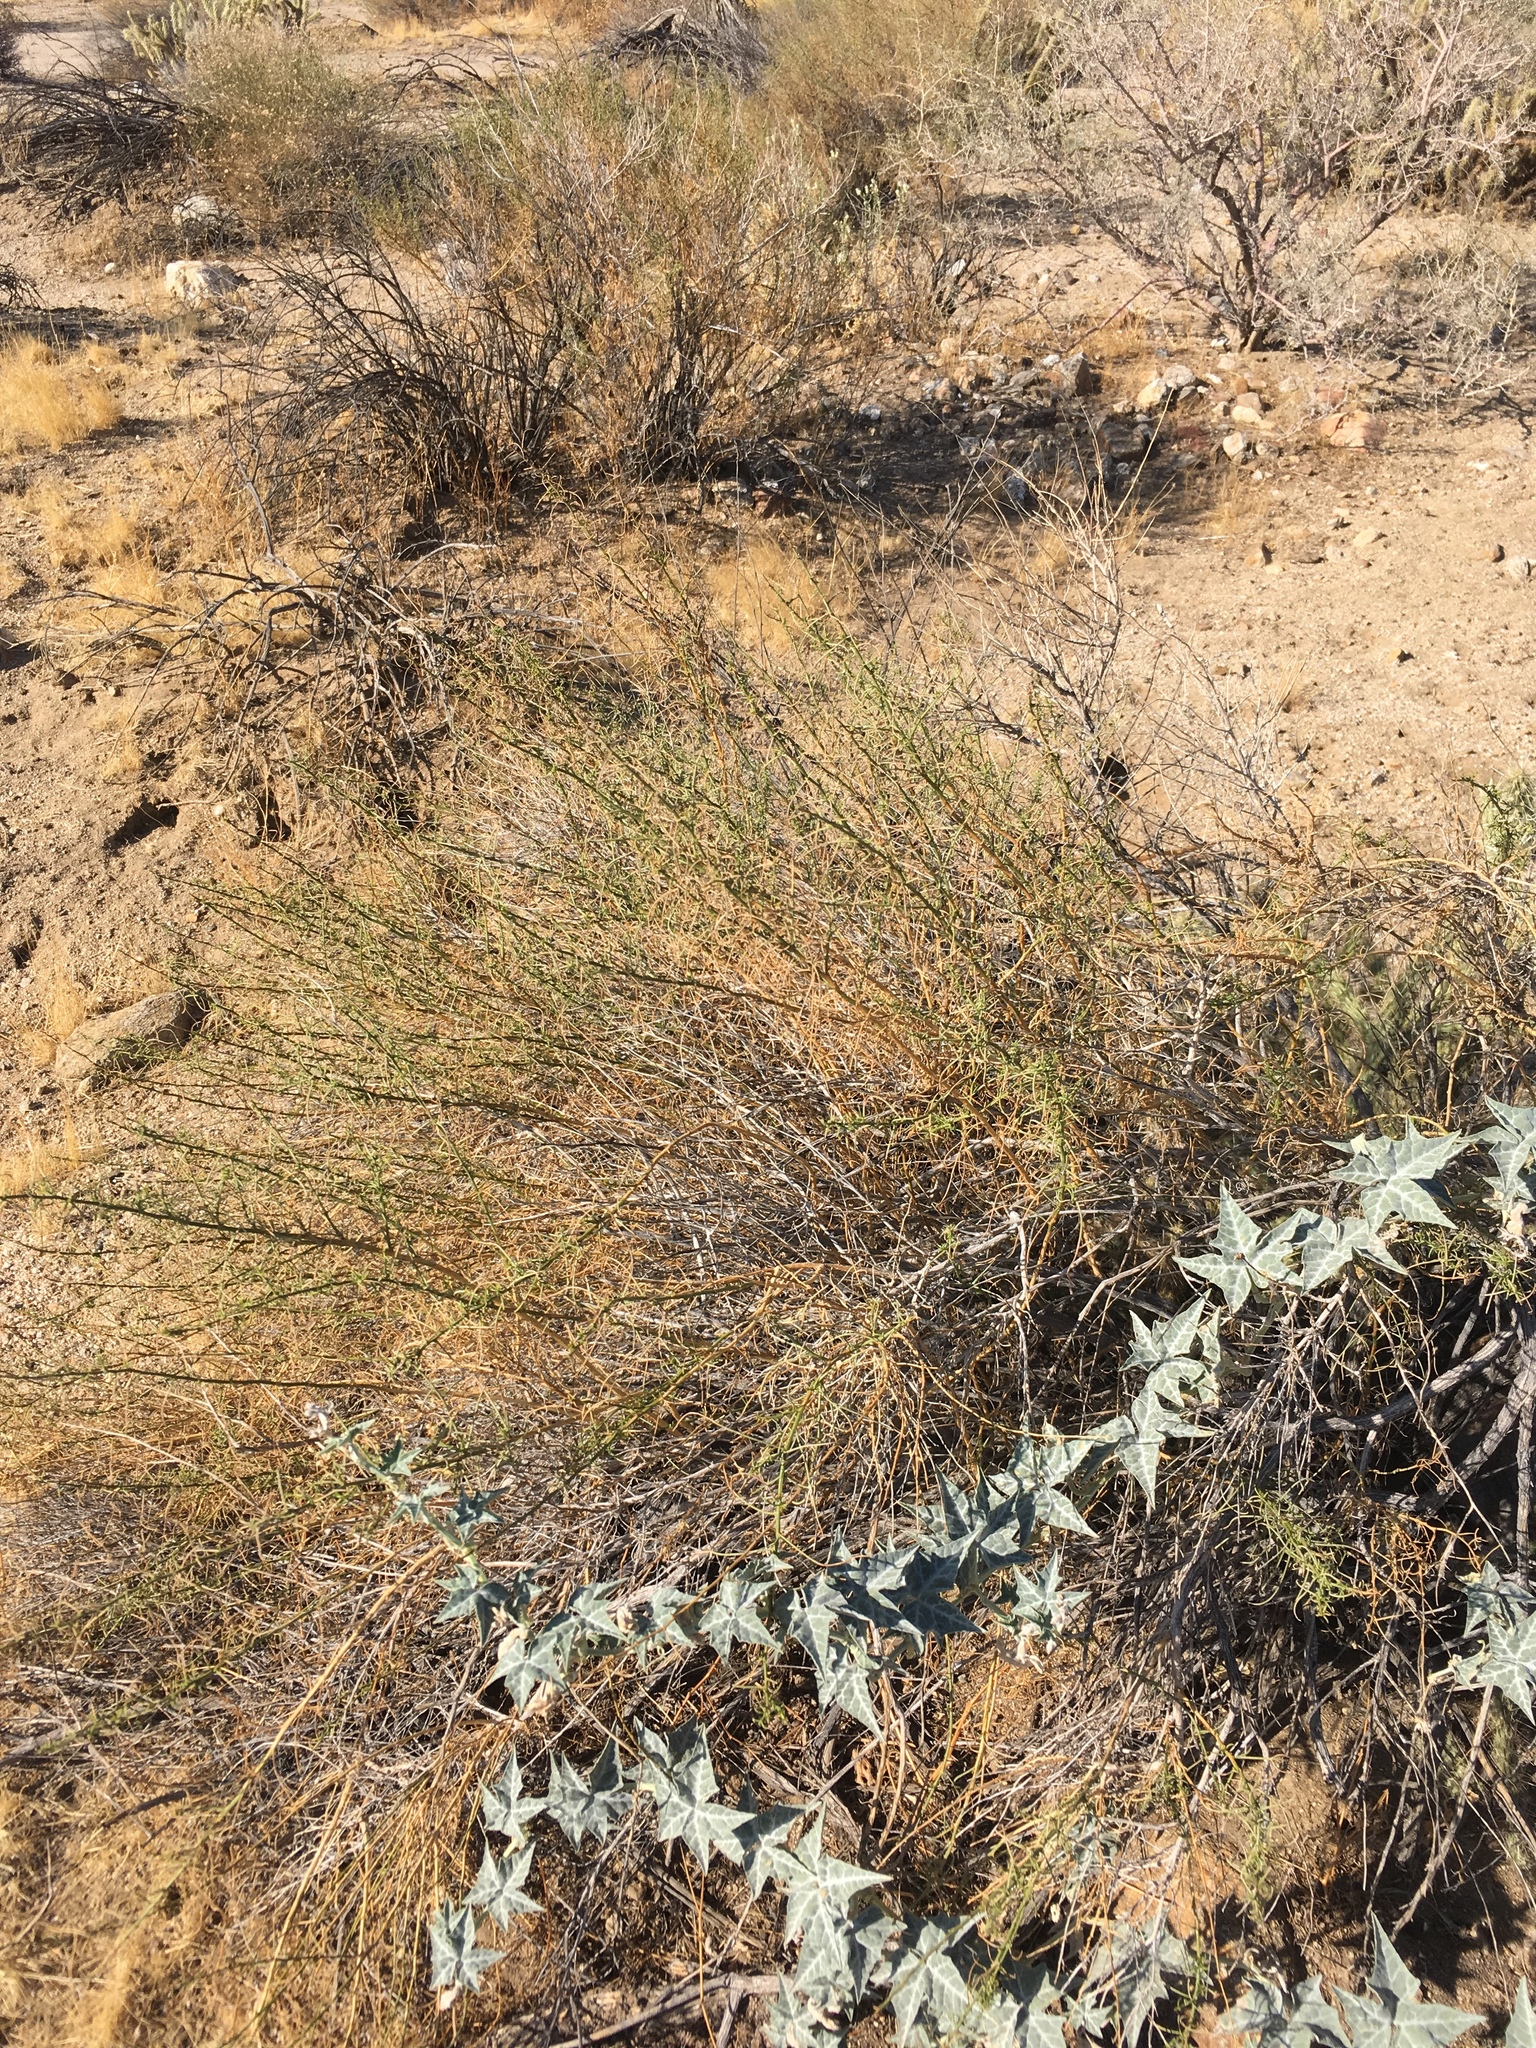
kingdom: Plantae
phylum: Tracheophyta
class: Magnoliopsida
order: Asterales
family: Asteraceae
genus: Ambrosia
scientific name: Ambrosia salsola
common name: Burrobrush
